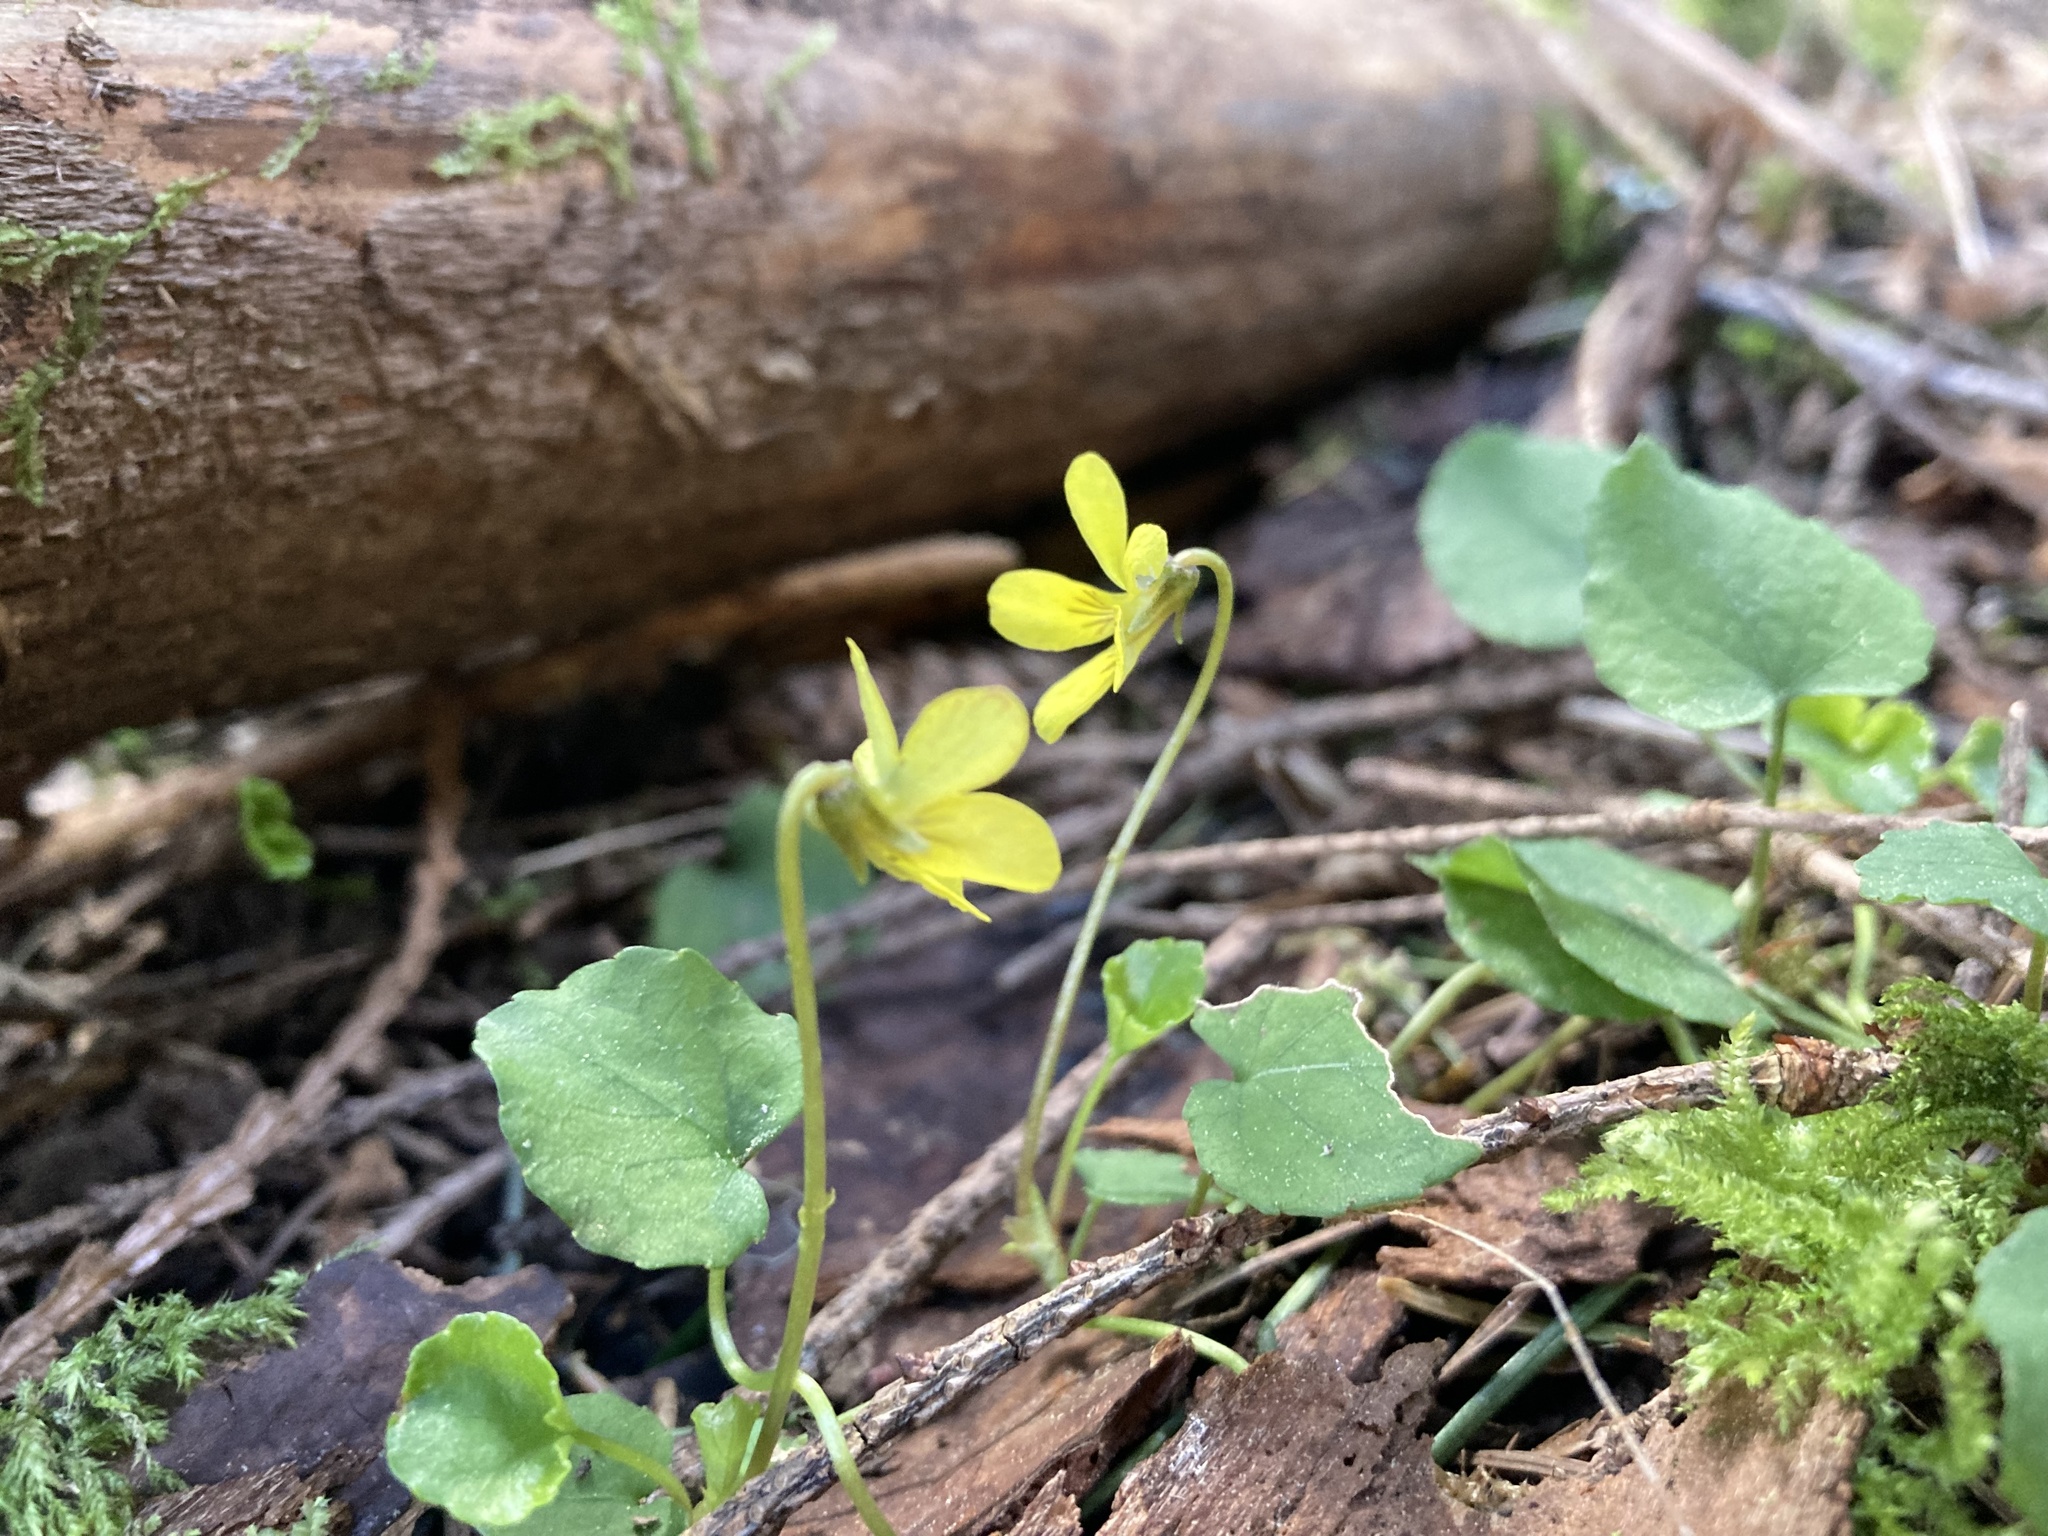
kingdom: Plantae
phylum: Tracheophyta
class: Magnoliopsida
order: Malpighiales
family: Violaceae
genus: Viola
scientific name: Viola sempervirens
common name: Evergreen violet
